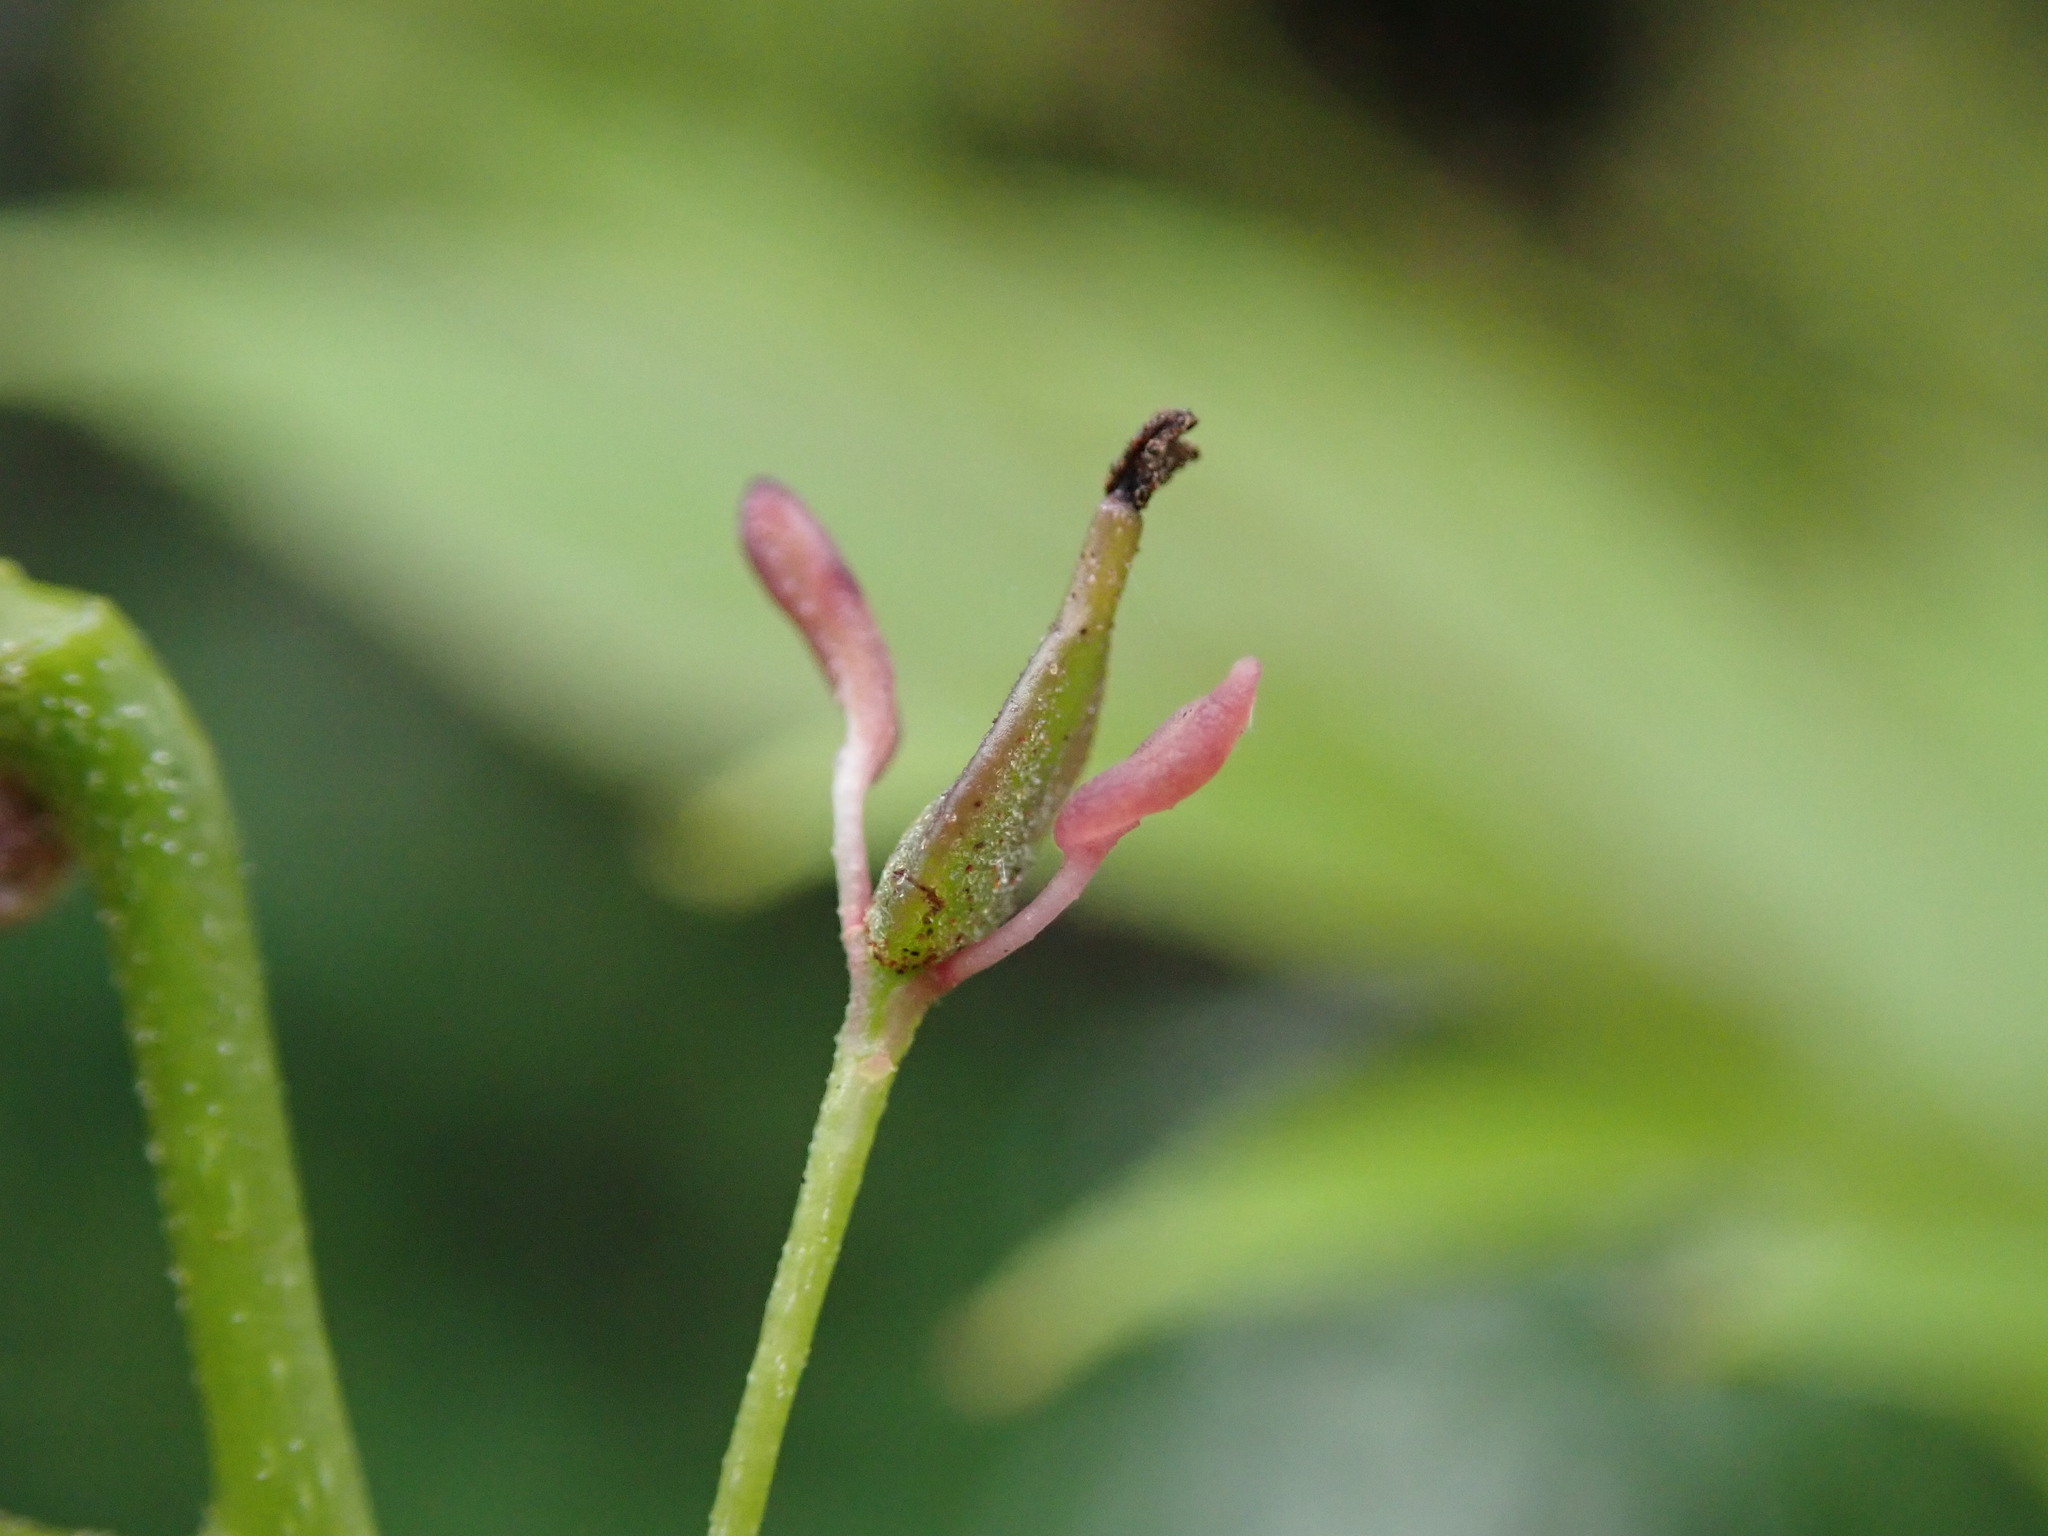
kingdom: Plantae
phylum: Tracheophyta
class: Magnoliopsida
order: Lamiales
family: Oleaceae
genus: Fraxinus
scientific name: Fraxinus excelsior
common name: European ash
